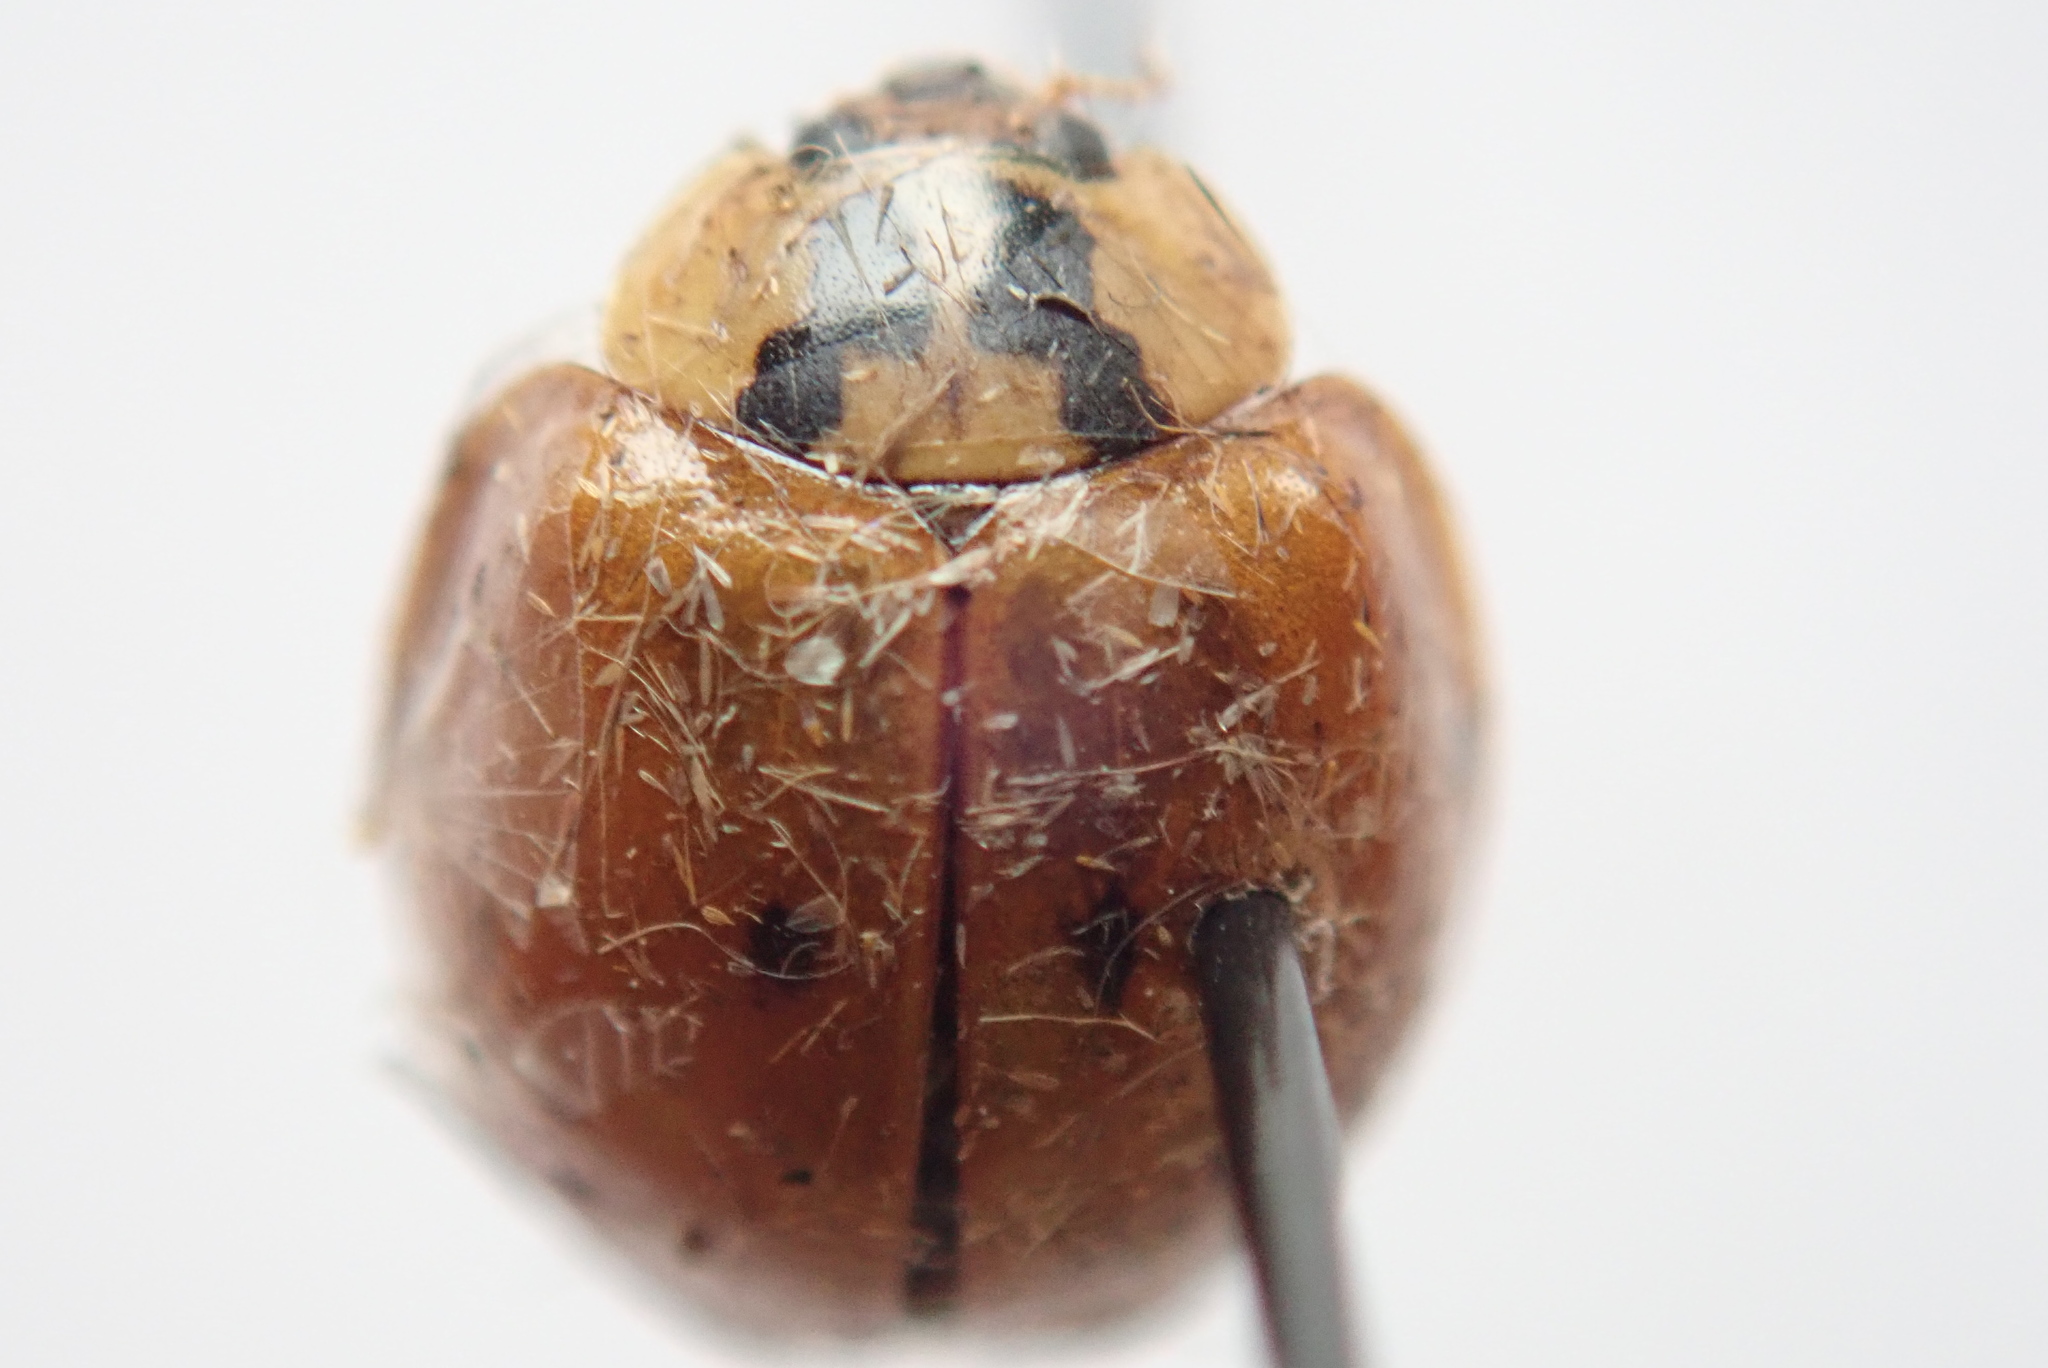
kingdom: Animalia
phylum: Arthropoda
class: Insecta
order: Coleoptera
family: Coccinellidae
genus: Harmonia
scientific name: Harmonia axyridis
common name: Harlequin ladybird
